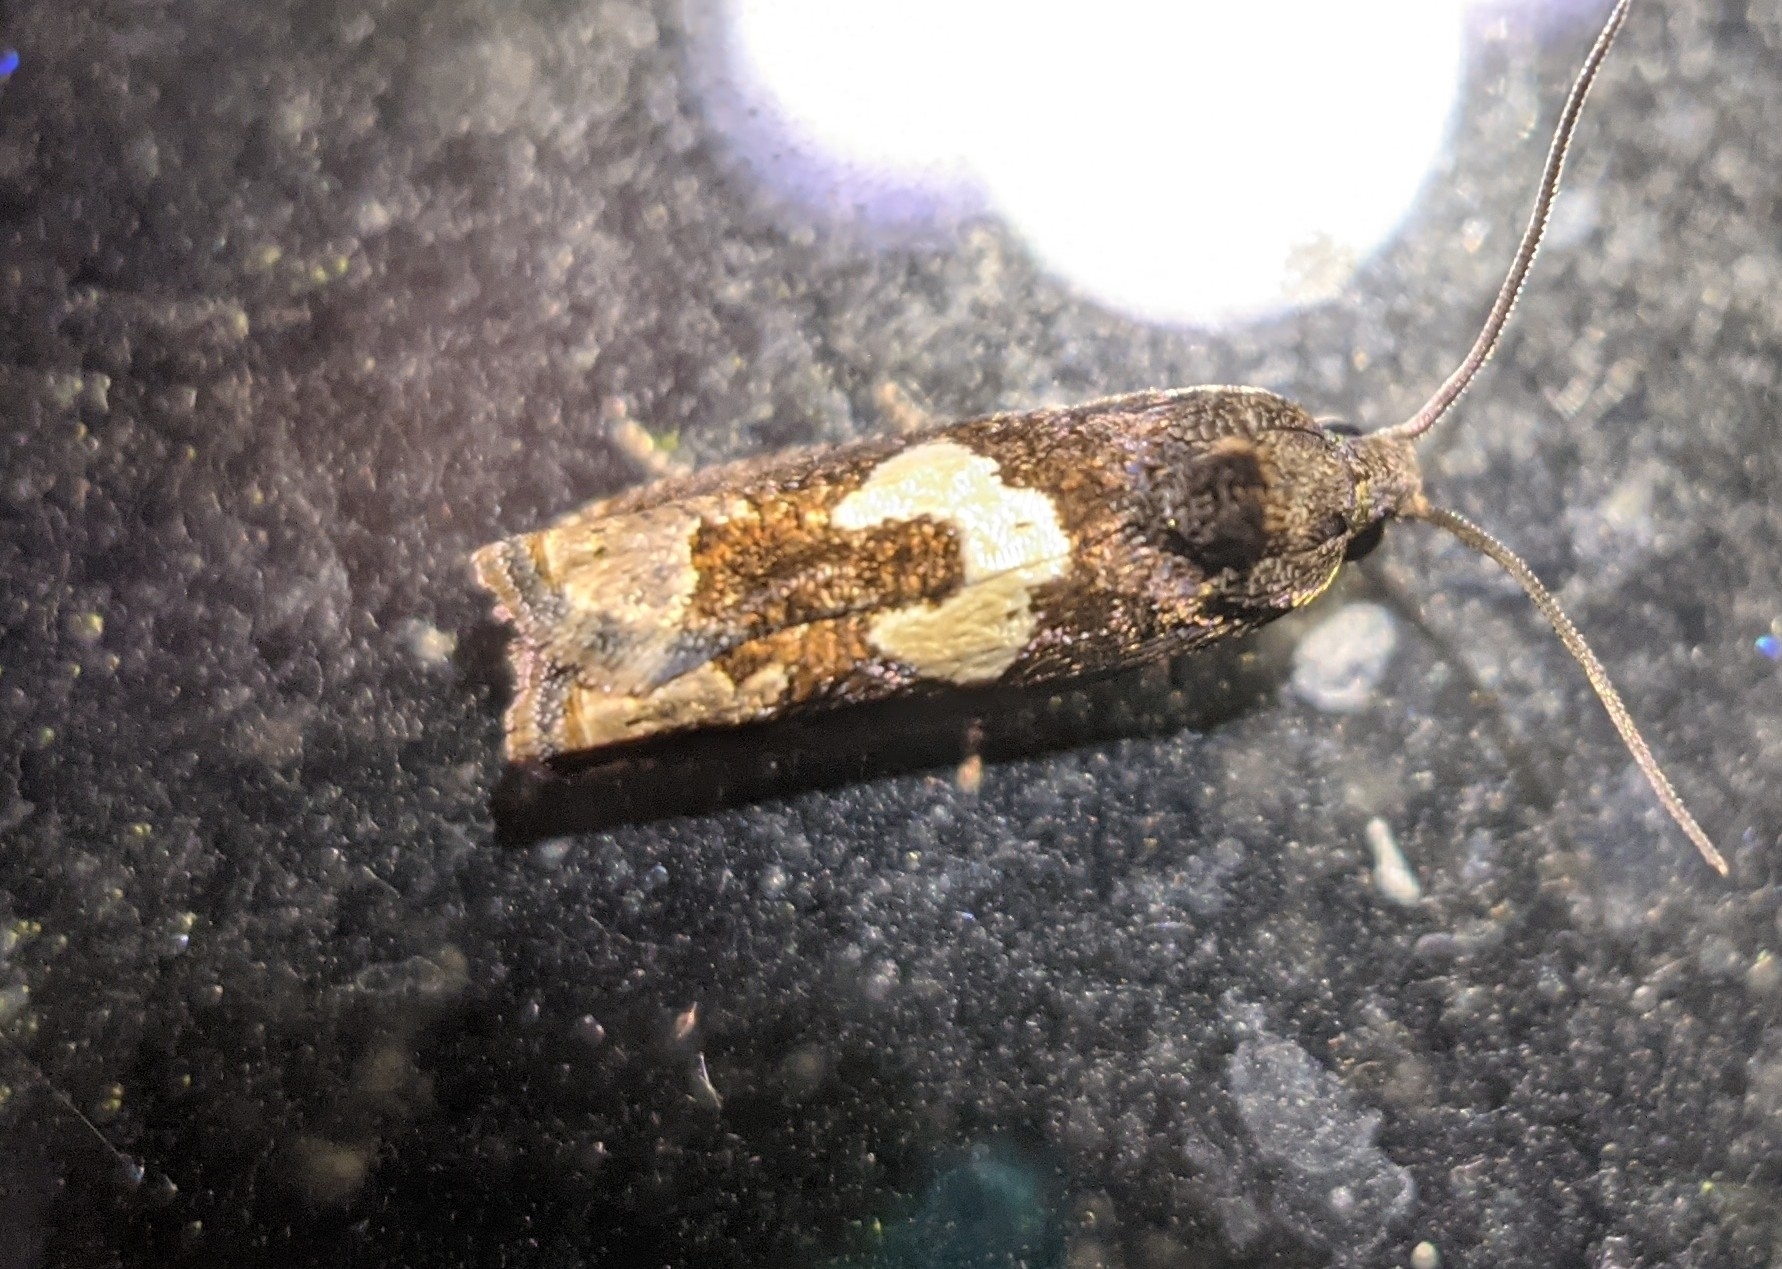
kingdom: Animalia
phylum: Arthropoda
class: Insecta
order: Lepidoptera
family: Tortricidae
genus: Epiblema
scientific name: Epiblema otiosana
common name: Bidens borer moth
